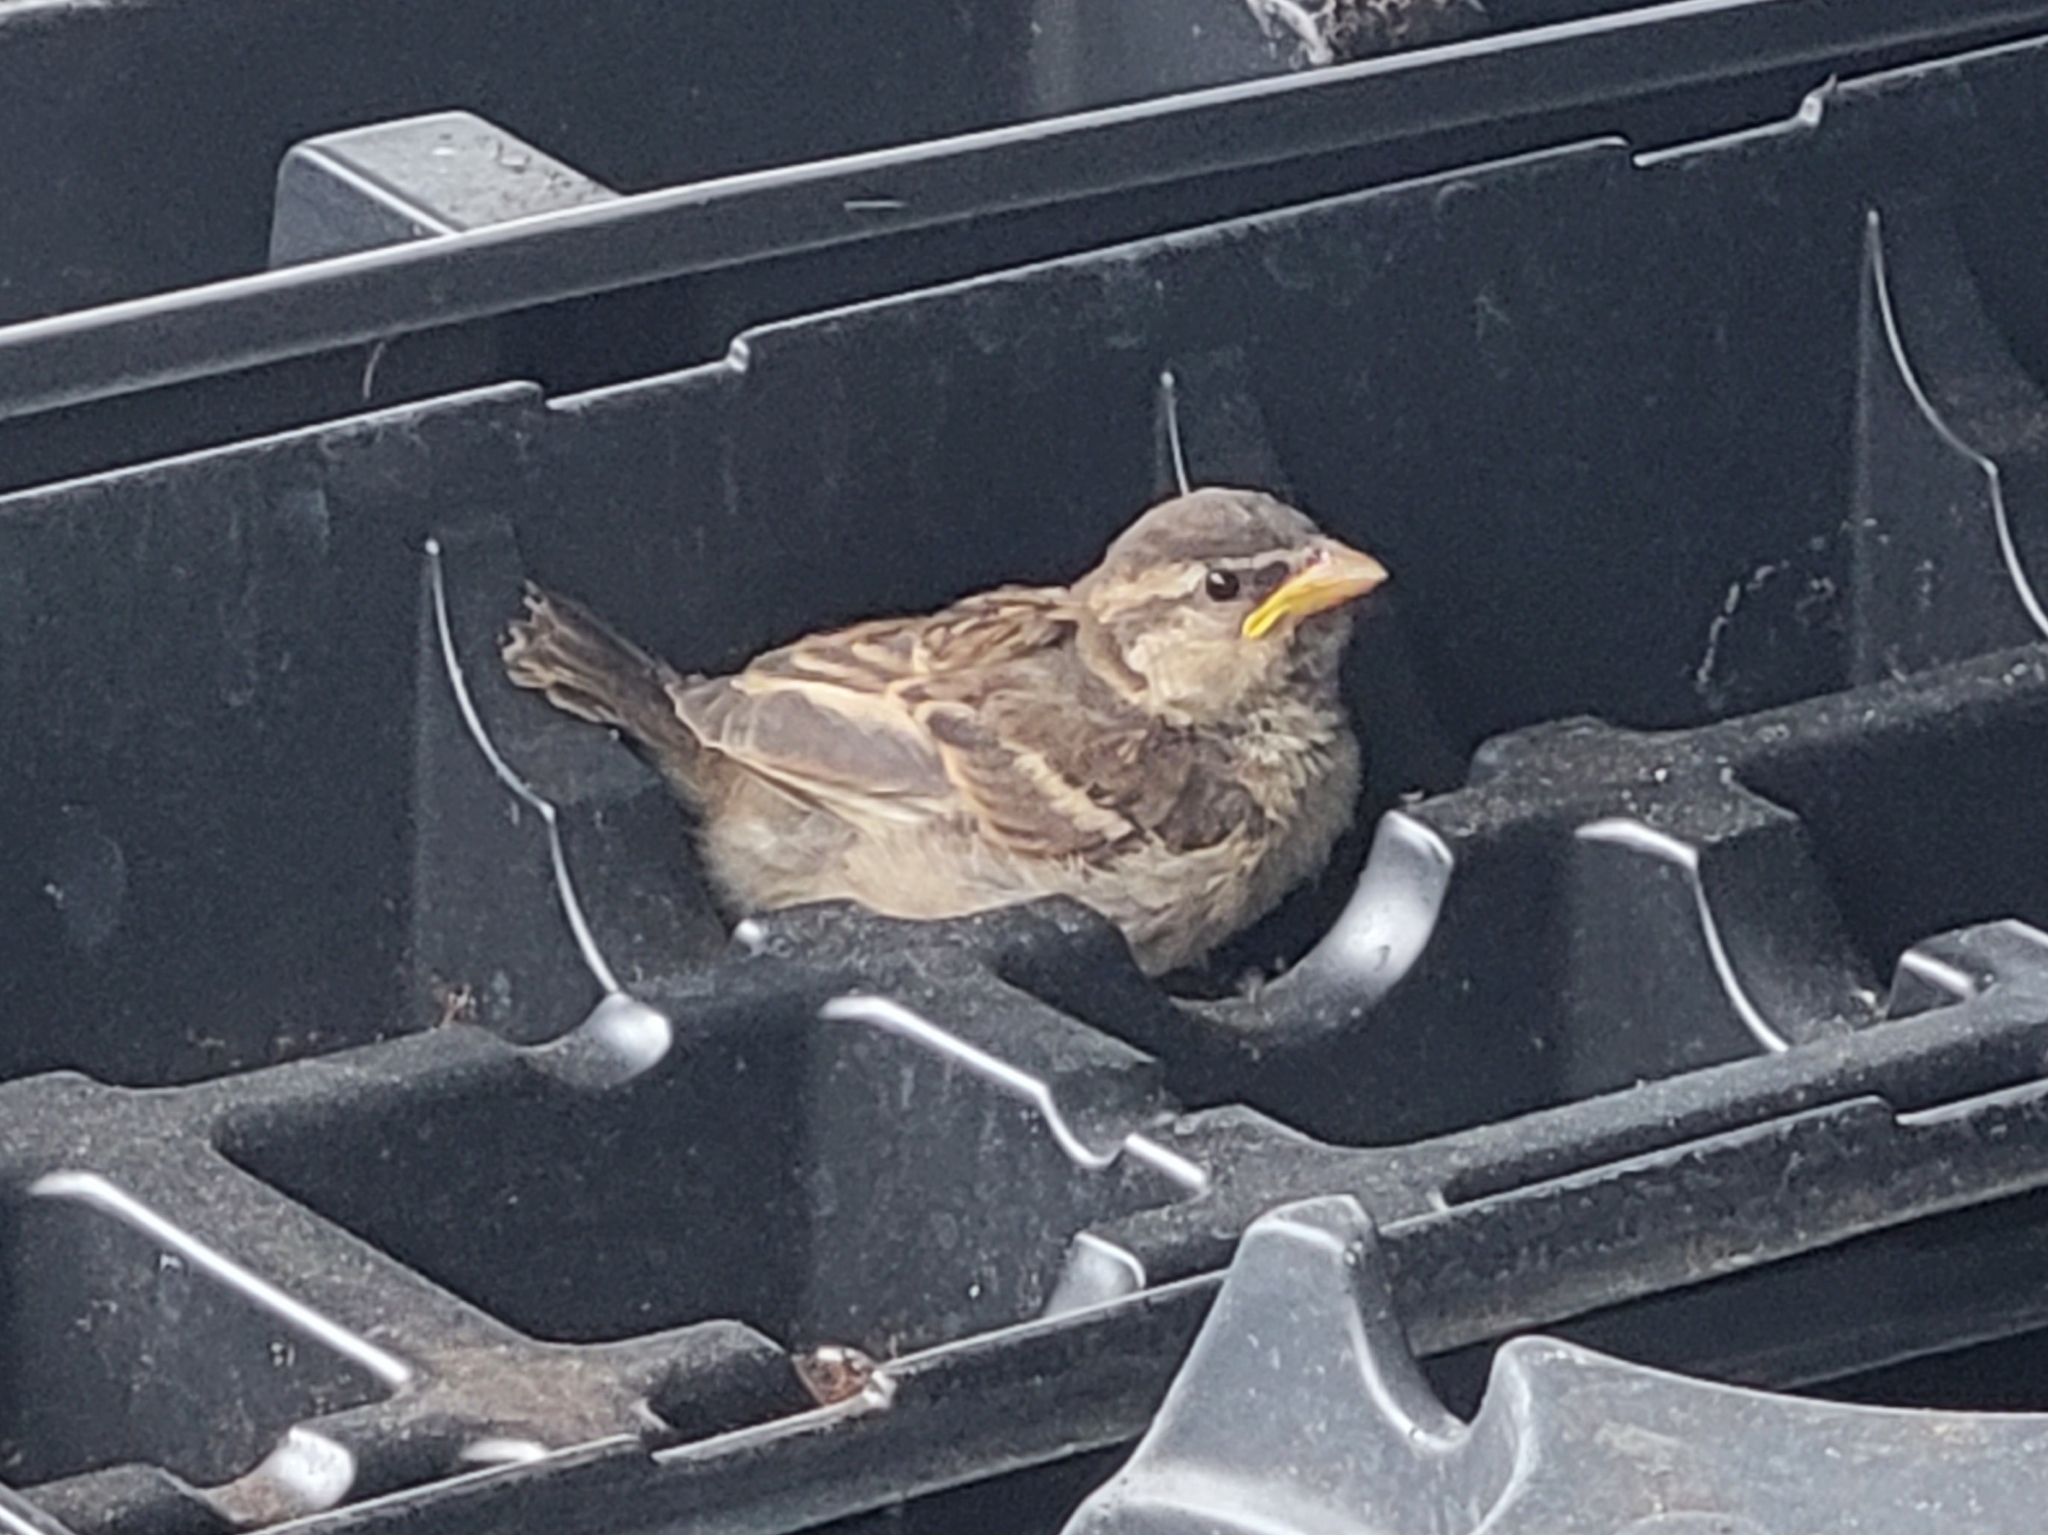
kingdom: Animalia
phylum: Chordata
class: Aves
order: Passeriformes
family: Passeridae
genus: Passer
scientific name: Passer domesticus
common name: House sparrow
